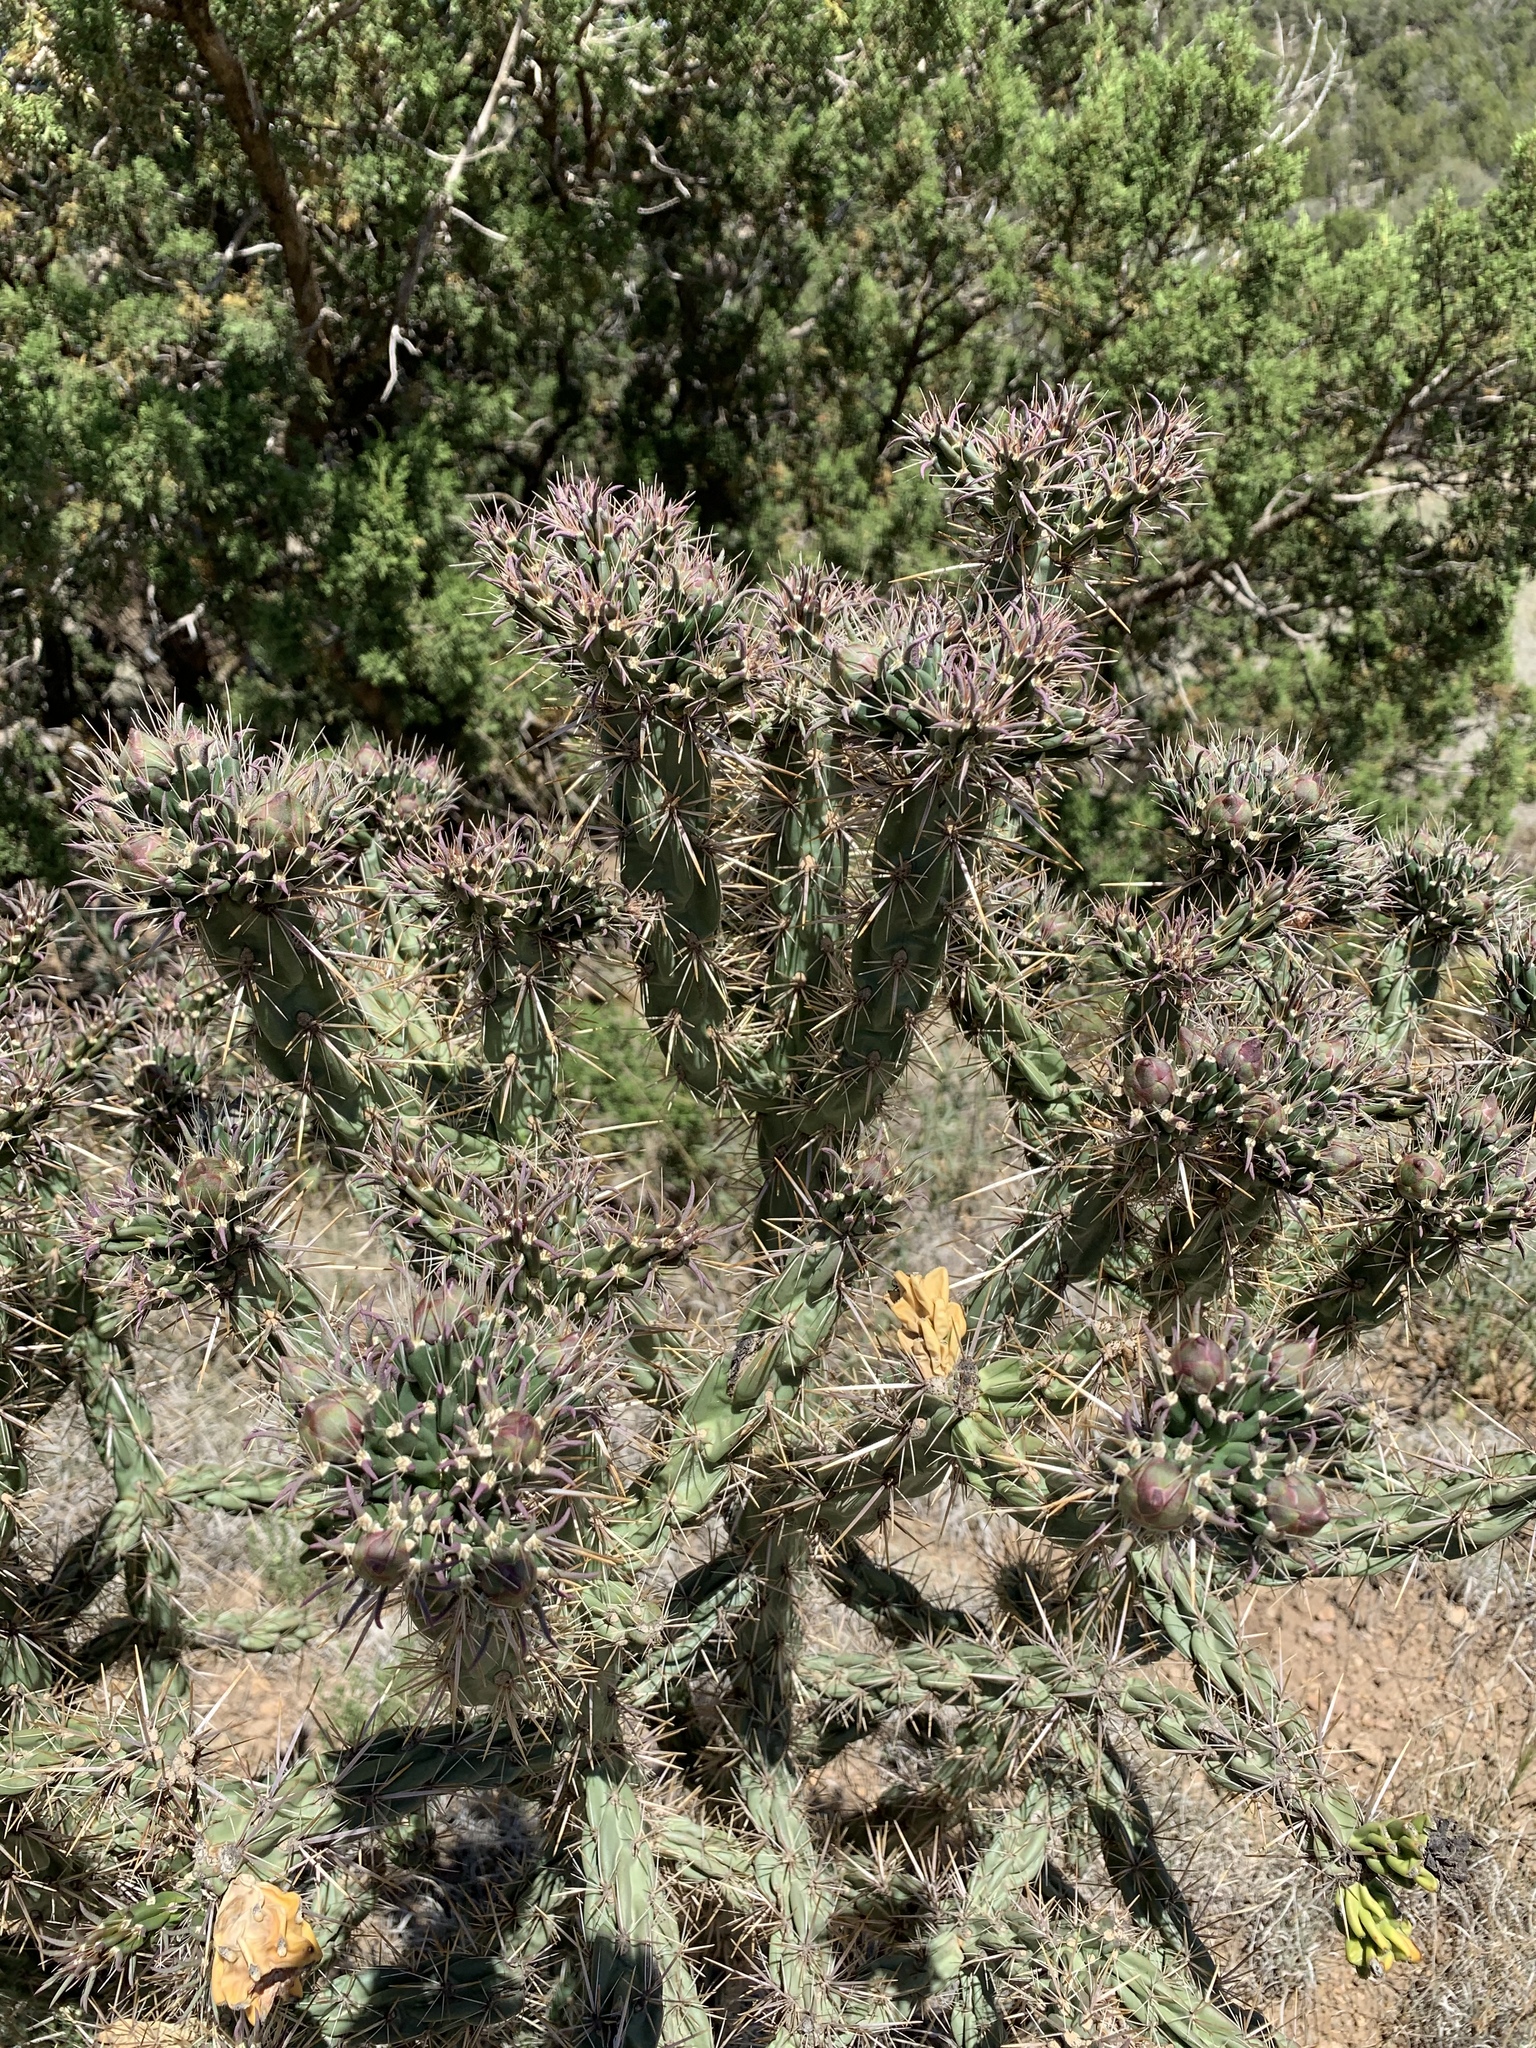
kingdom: Plantae
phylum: Tracheophyta
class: Magnoliopsida
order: Caryophyllales
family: Cactaceae
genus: Cylindropuntia
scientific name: Cylindropuntia imbricata
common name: Candelabrum cactus
